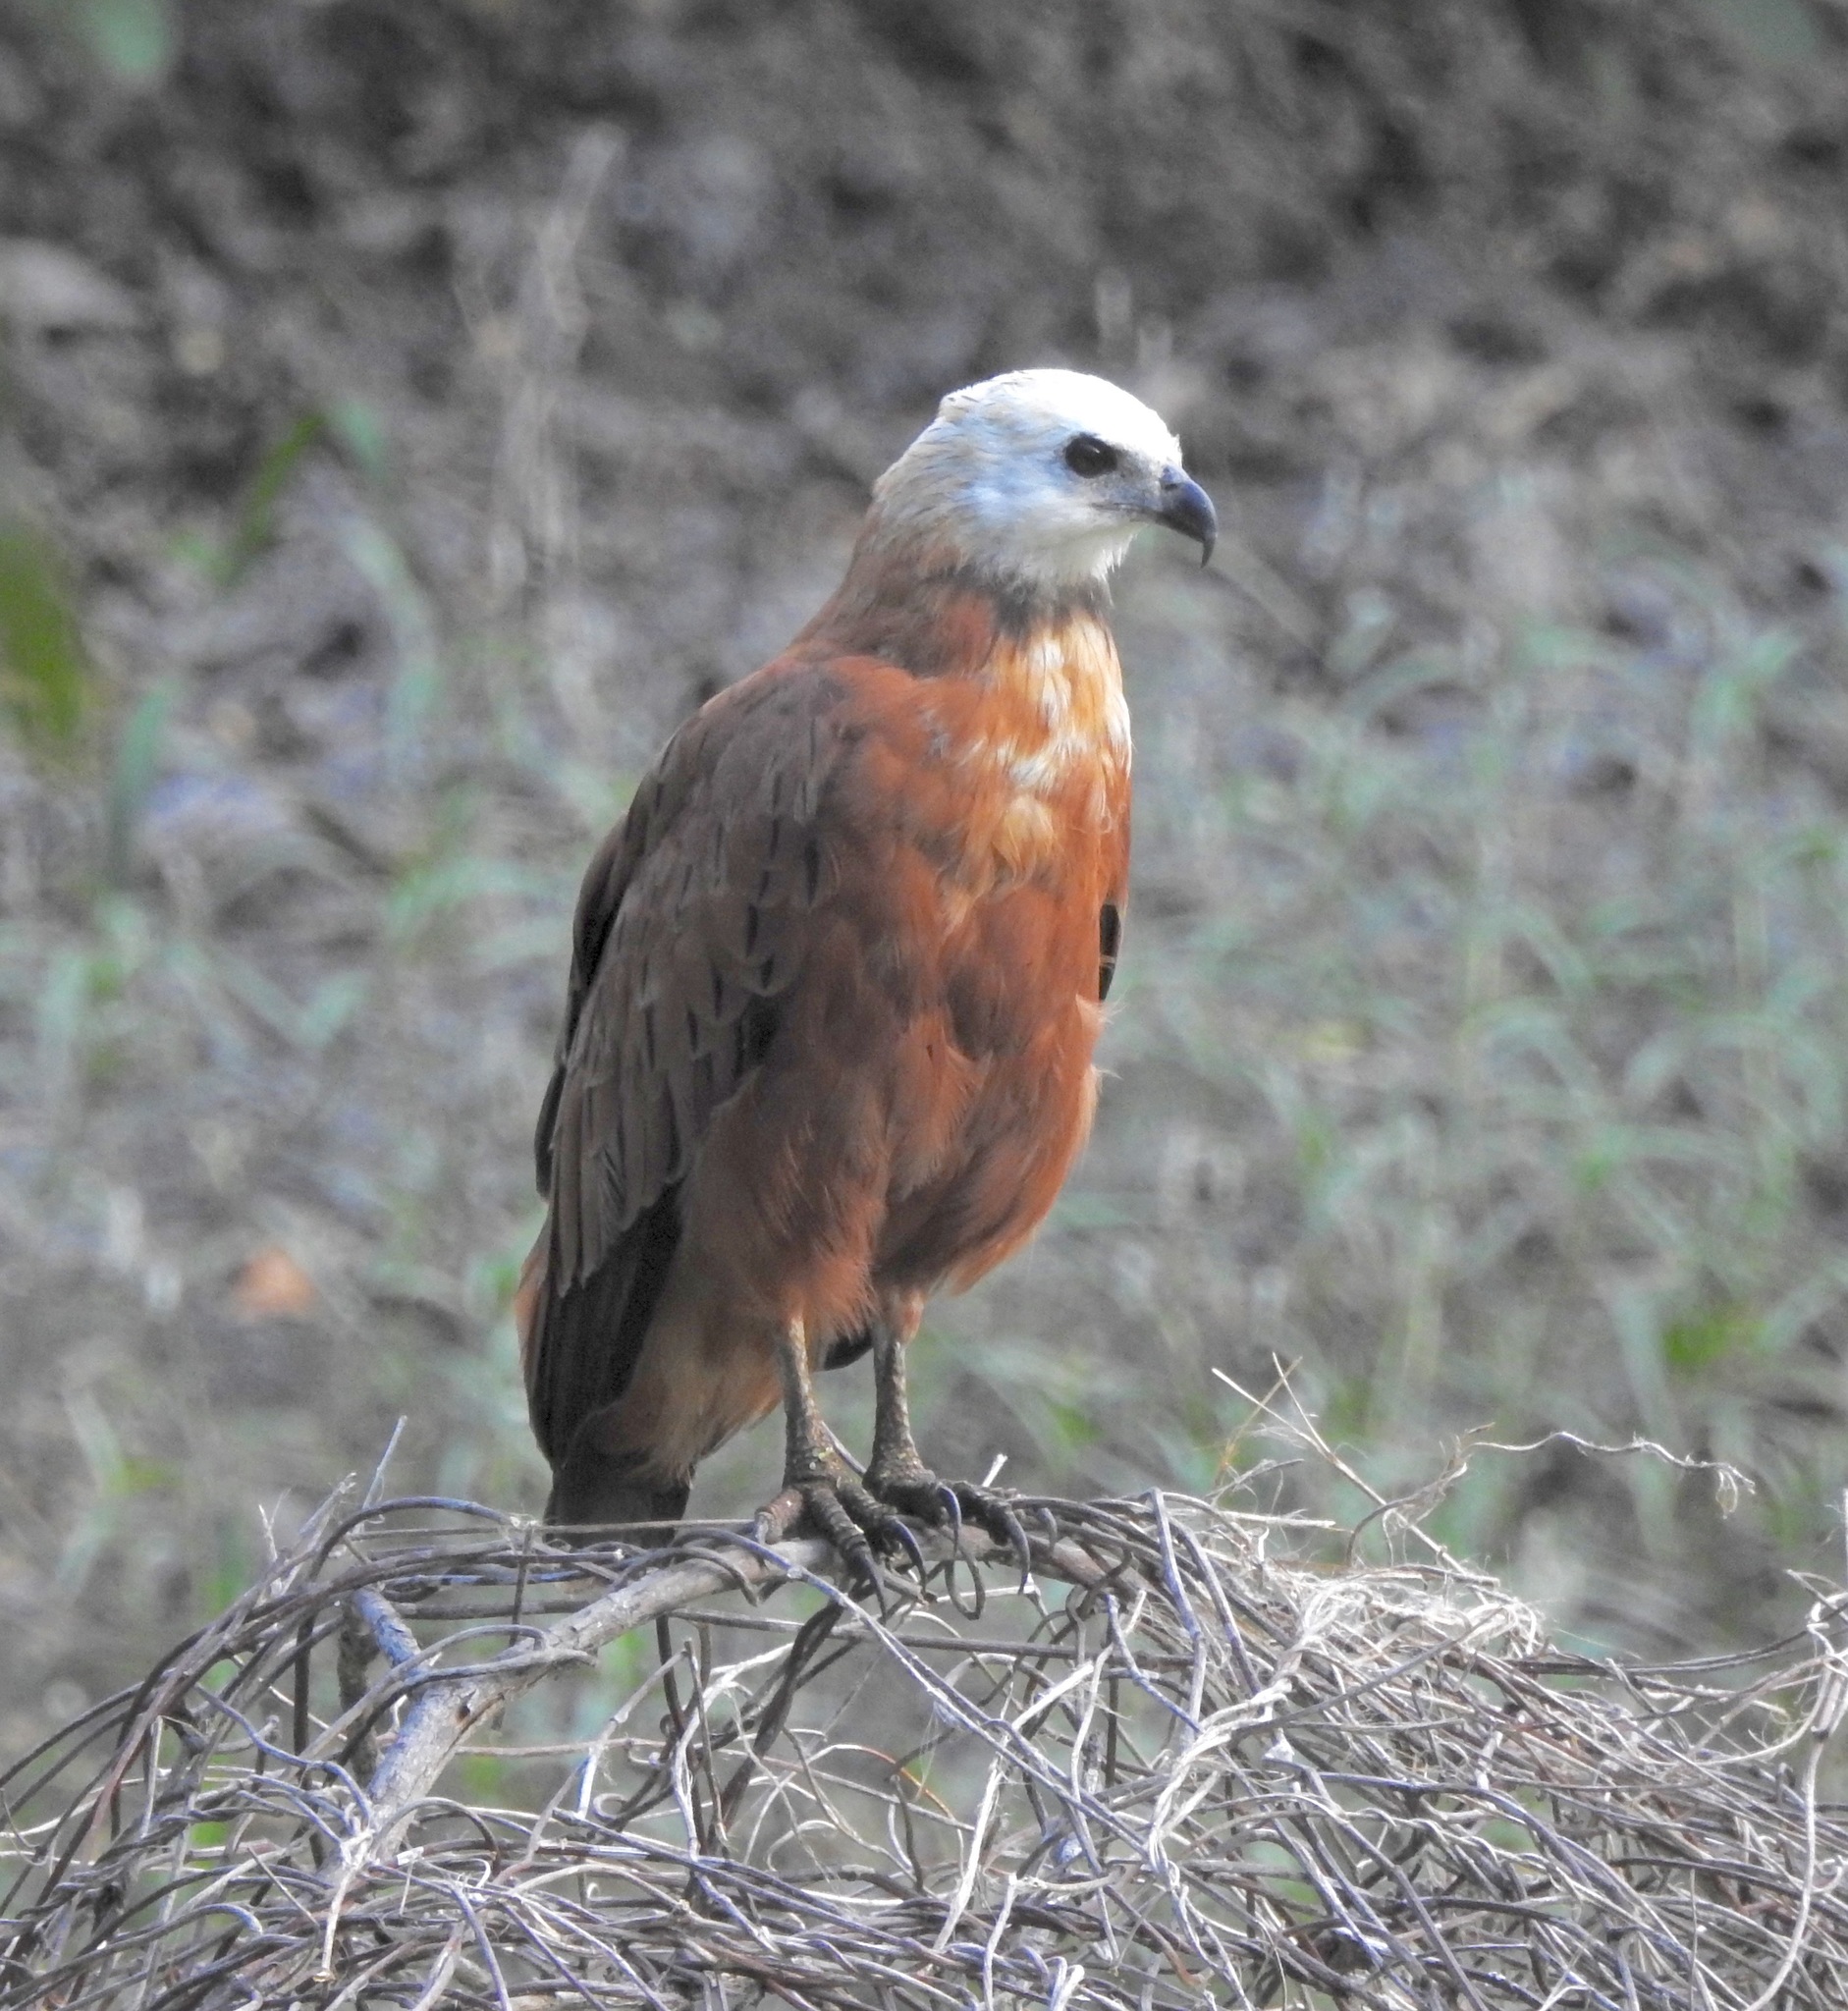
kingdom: Animalia
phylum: Chordata
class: Aves
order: Accipitriformes
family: Accipitridae
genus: Busarellus
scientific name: Busarellus nigricollis
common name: Black-collared hawk
